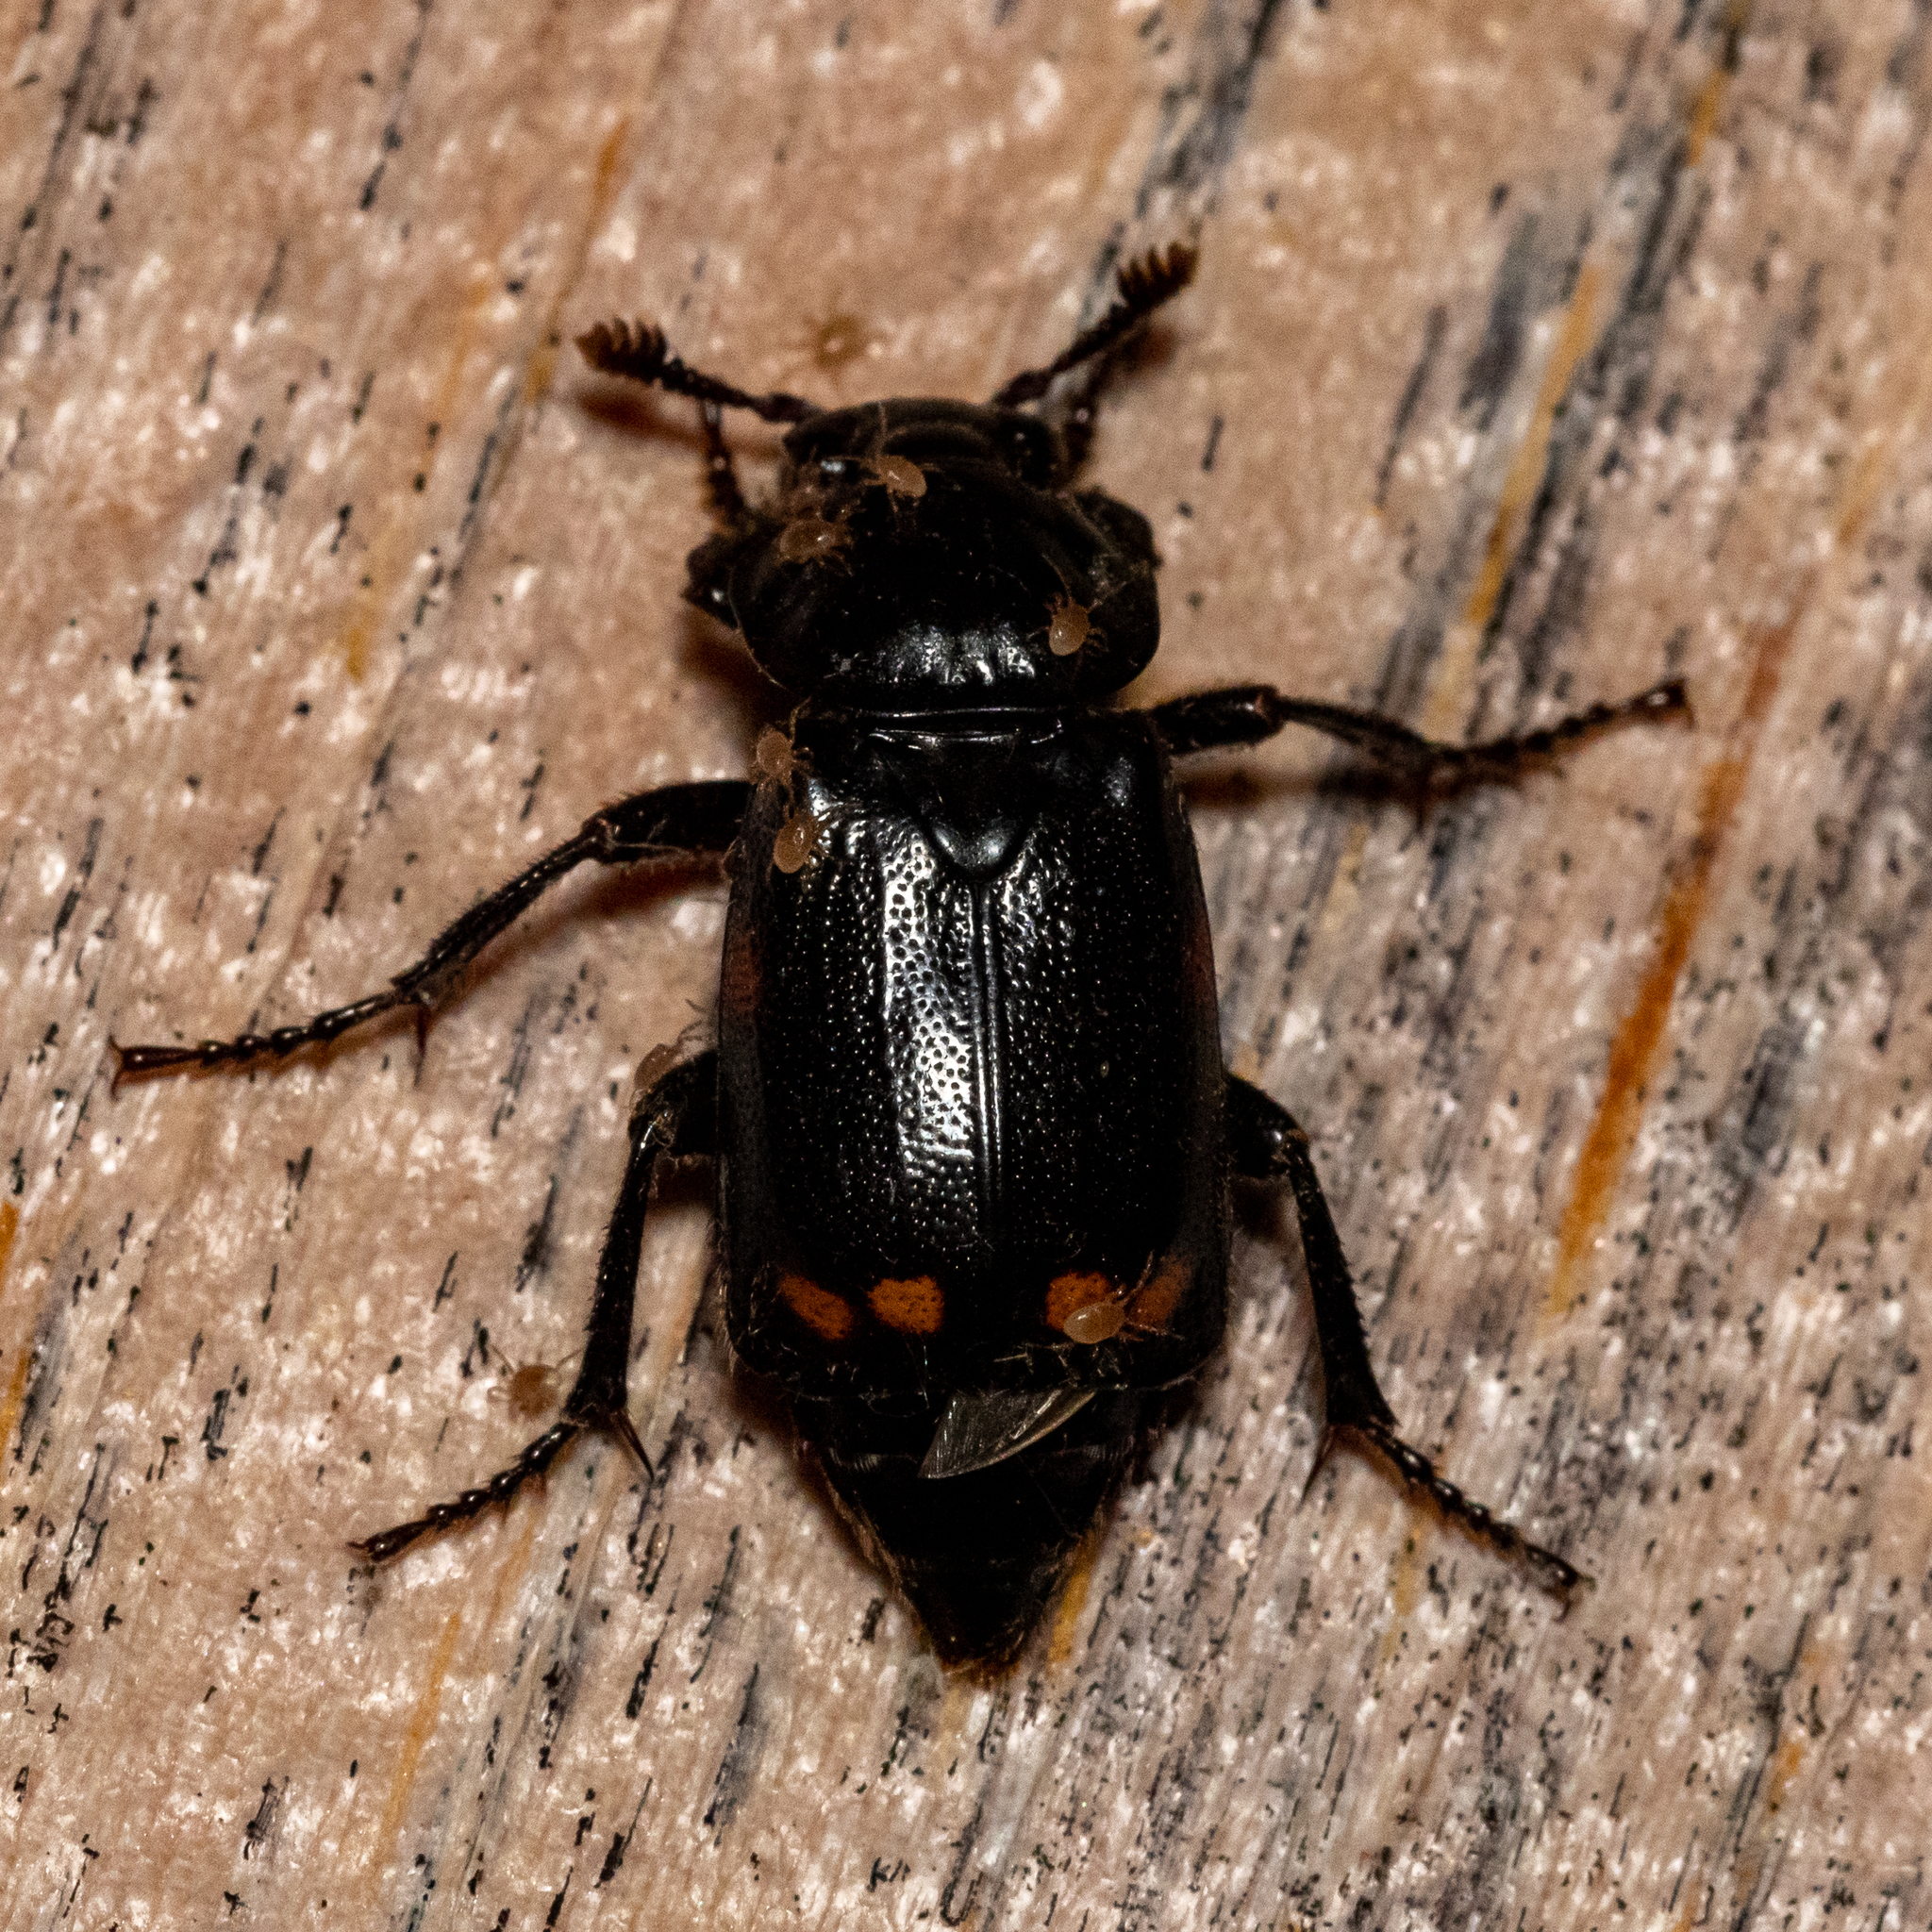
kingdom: Animalia
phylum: Arthropoda
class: Insecta
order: Coleoptera
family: Staphylinidae
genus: Nicrophorus
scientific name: Nicrophorus pustulatus
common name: Pustulated carrion beetle
